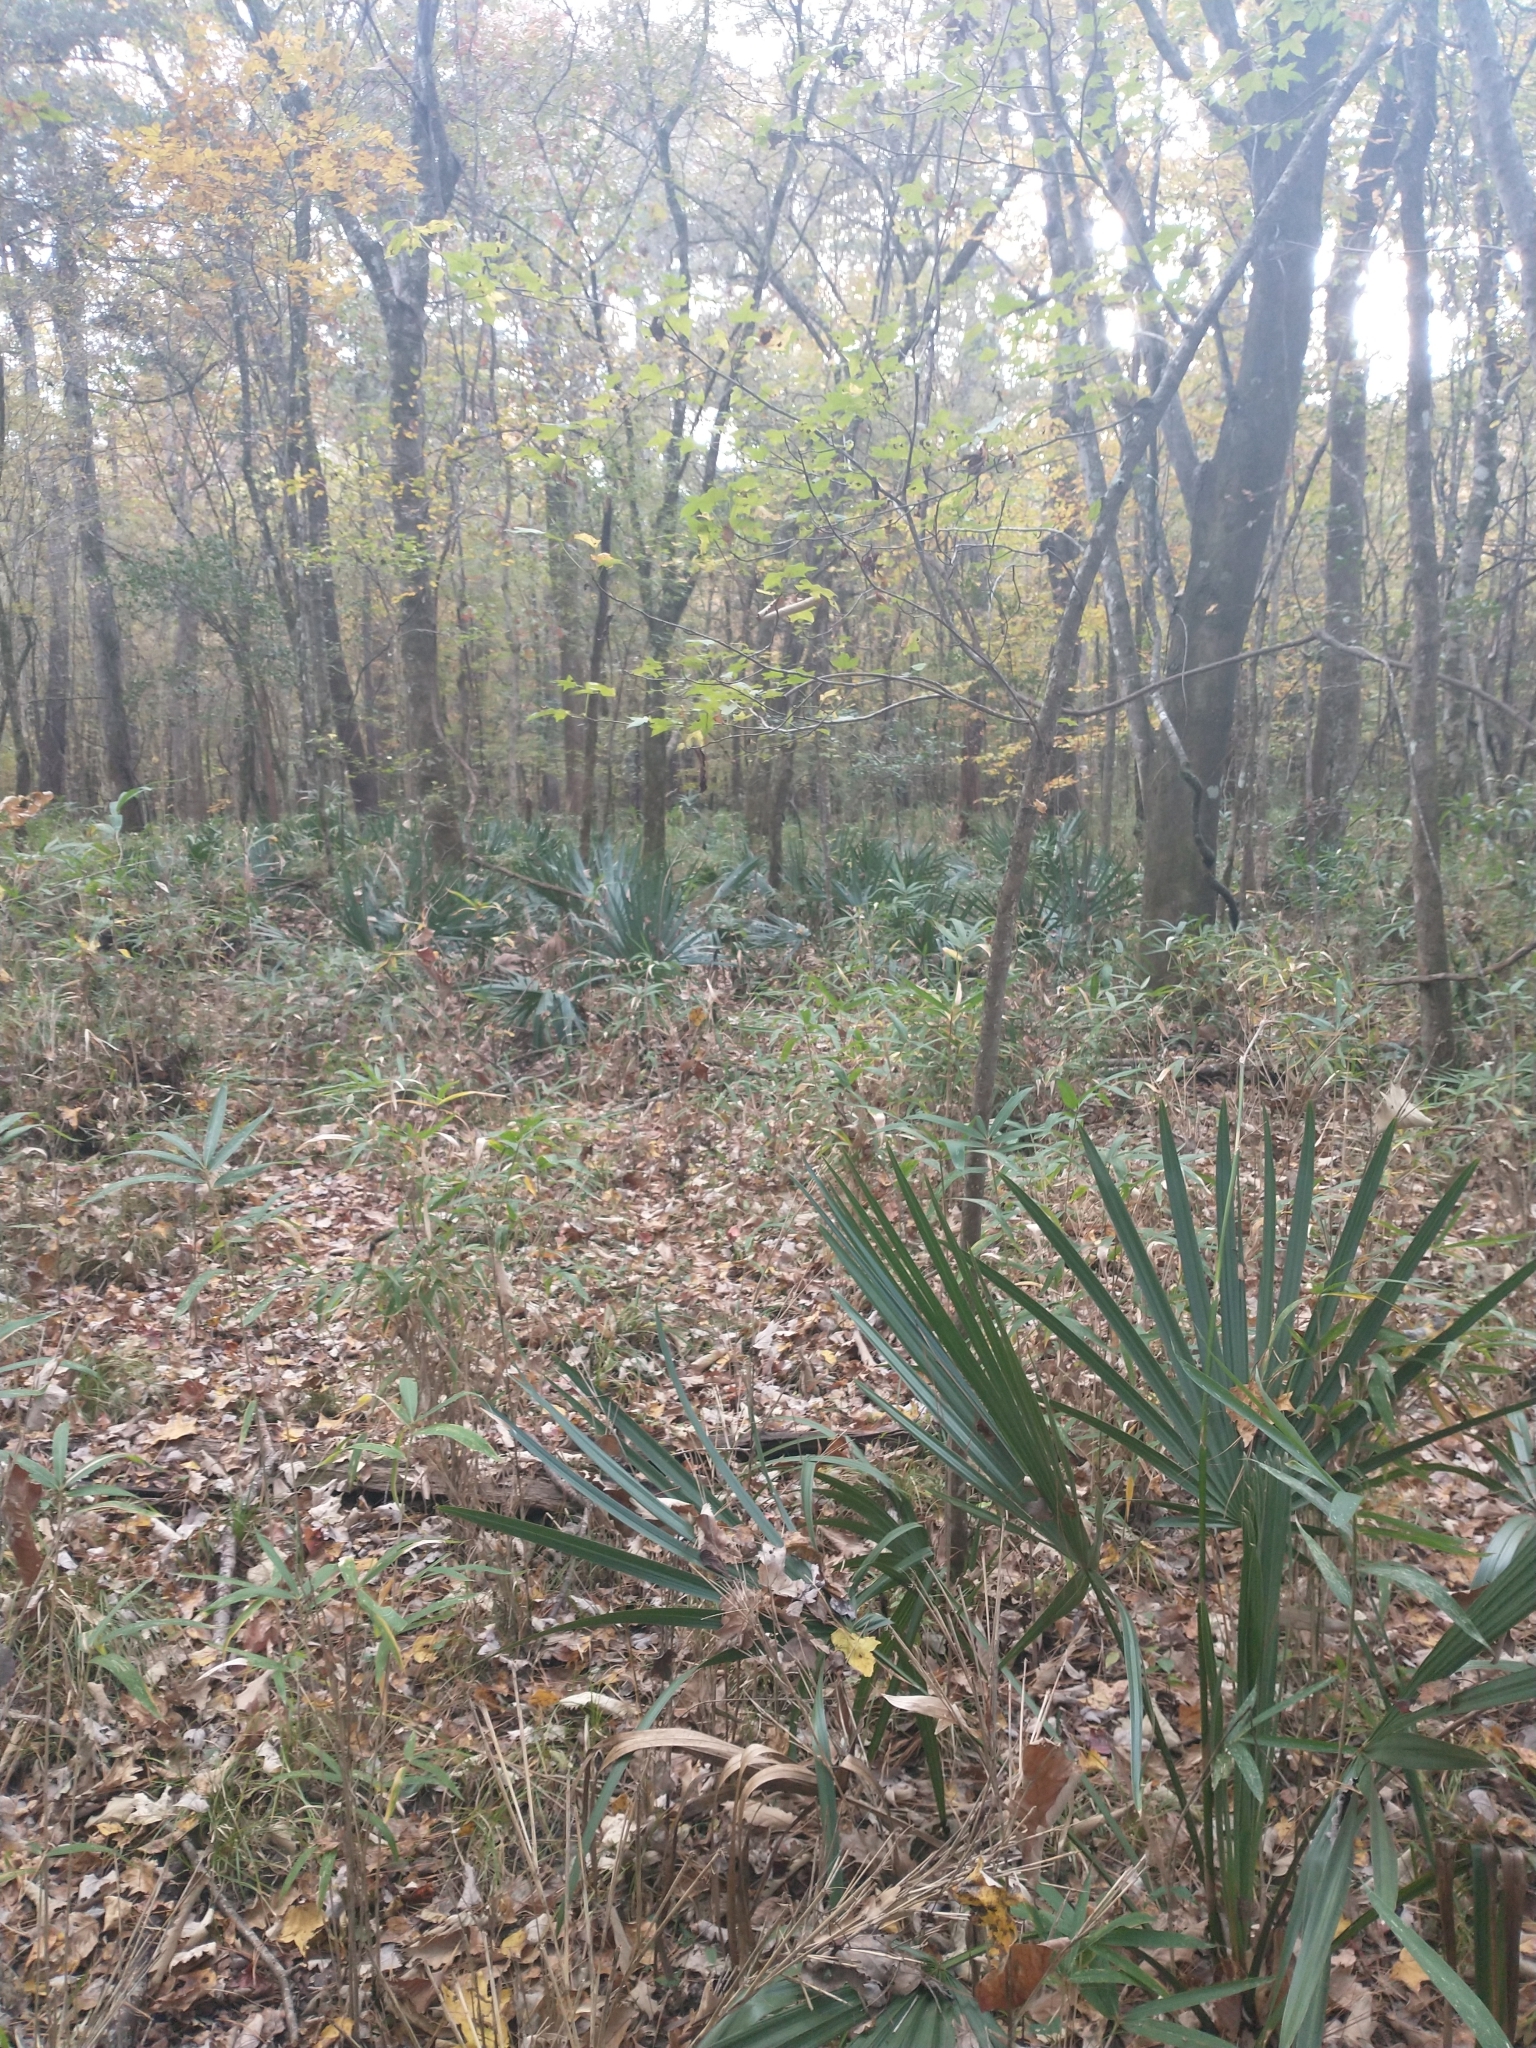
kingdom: Plantae
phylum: Tracheophyta
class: Liliopsida
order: Arecales
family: Arecaceae
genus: Sabal
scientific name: Sabal minor
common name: Dwarf palmetto
